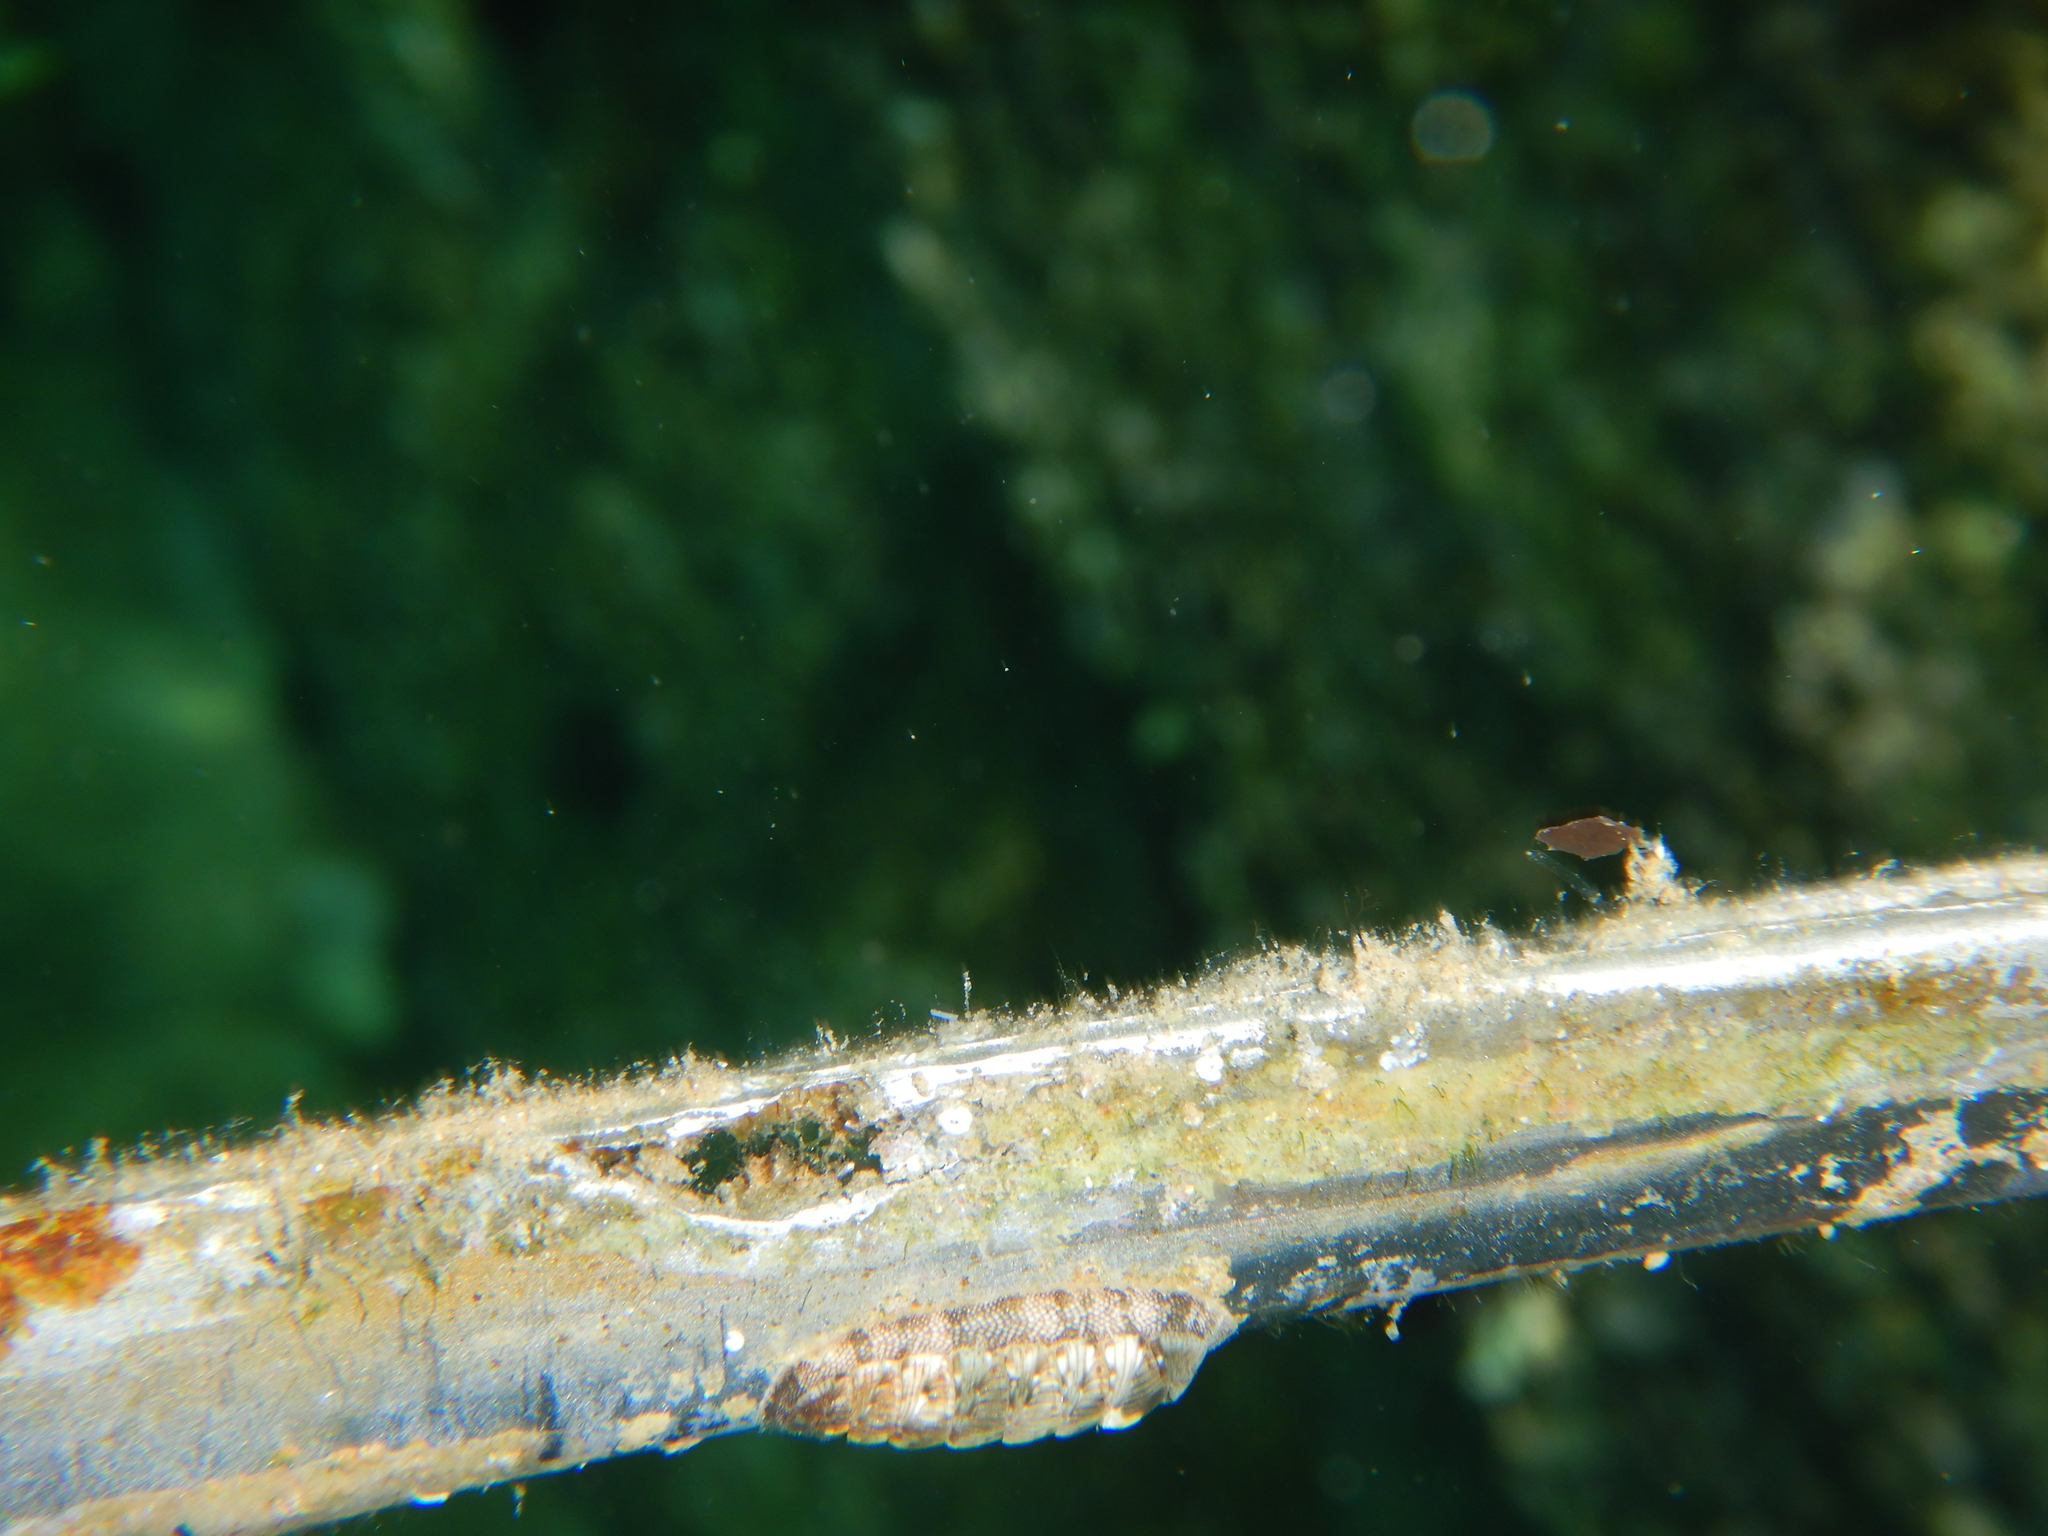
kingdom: Animalia
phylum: Mollusca
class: Polyplacophora
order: Chitonida
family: Chitonidae
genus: Rhyssoplax
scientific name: Rhyssoplax olivacea
